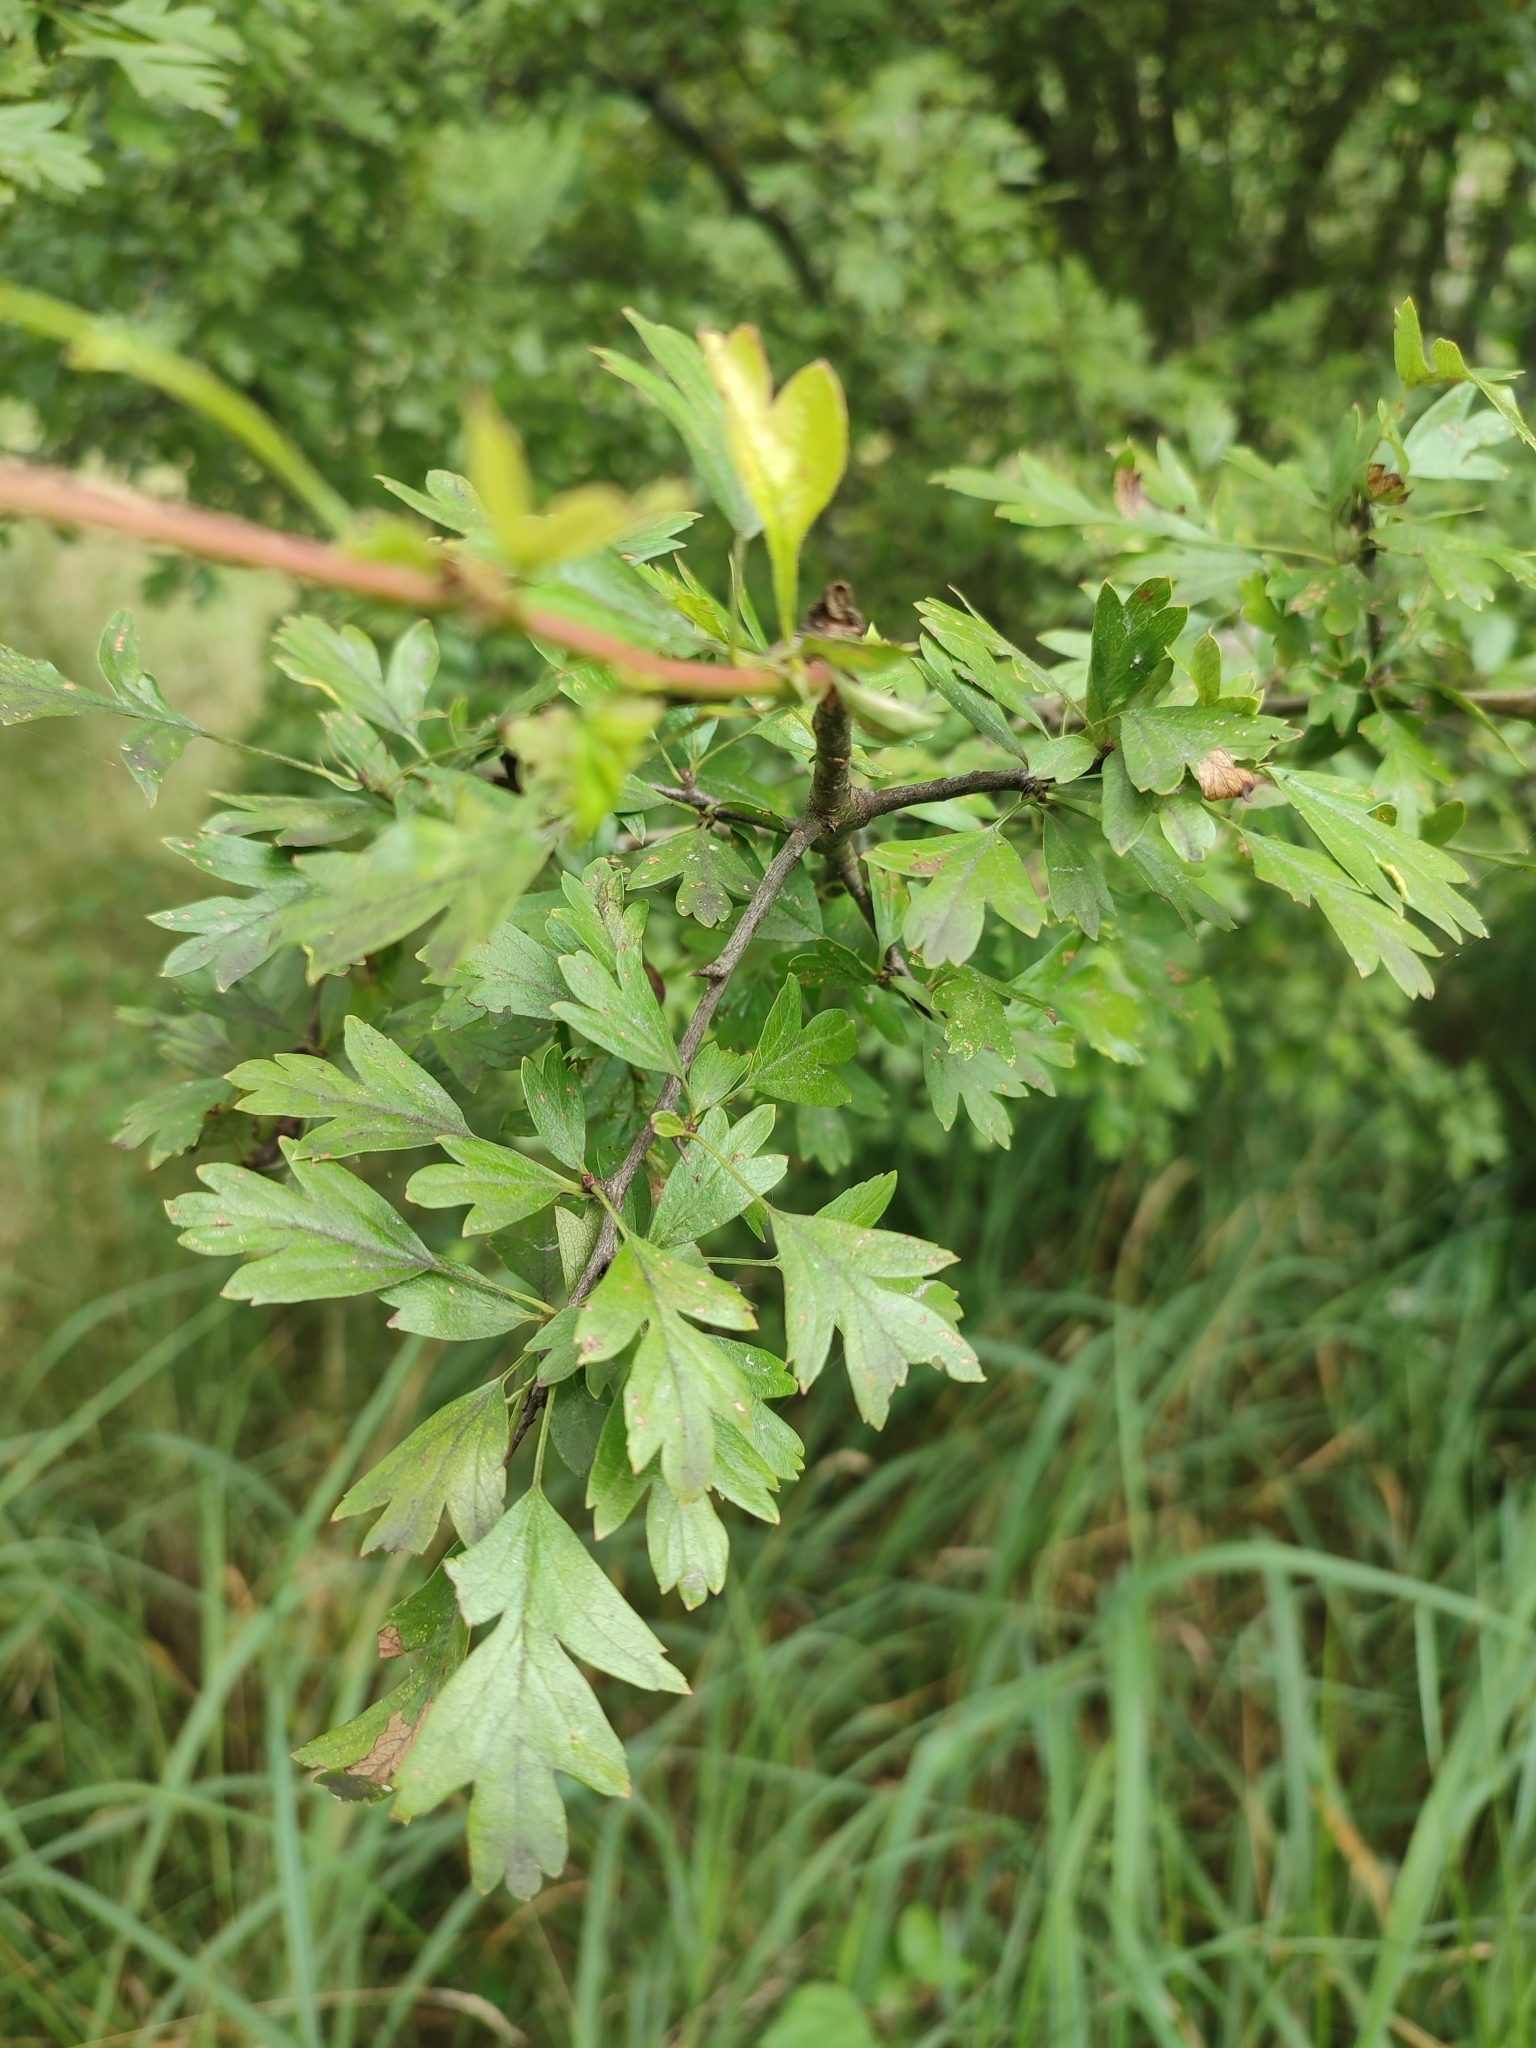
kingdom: Plantae
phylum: Tracheophyta
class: Magnoliopsida
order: Rosales
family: Rosaceae
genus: Crataegus
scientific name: Crataegus rhipidophylla
